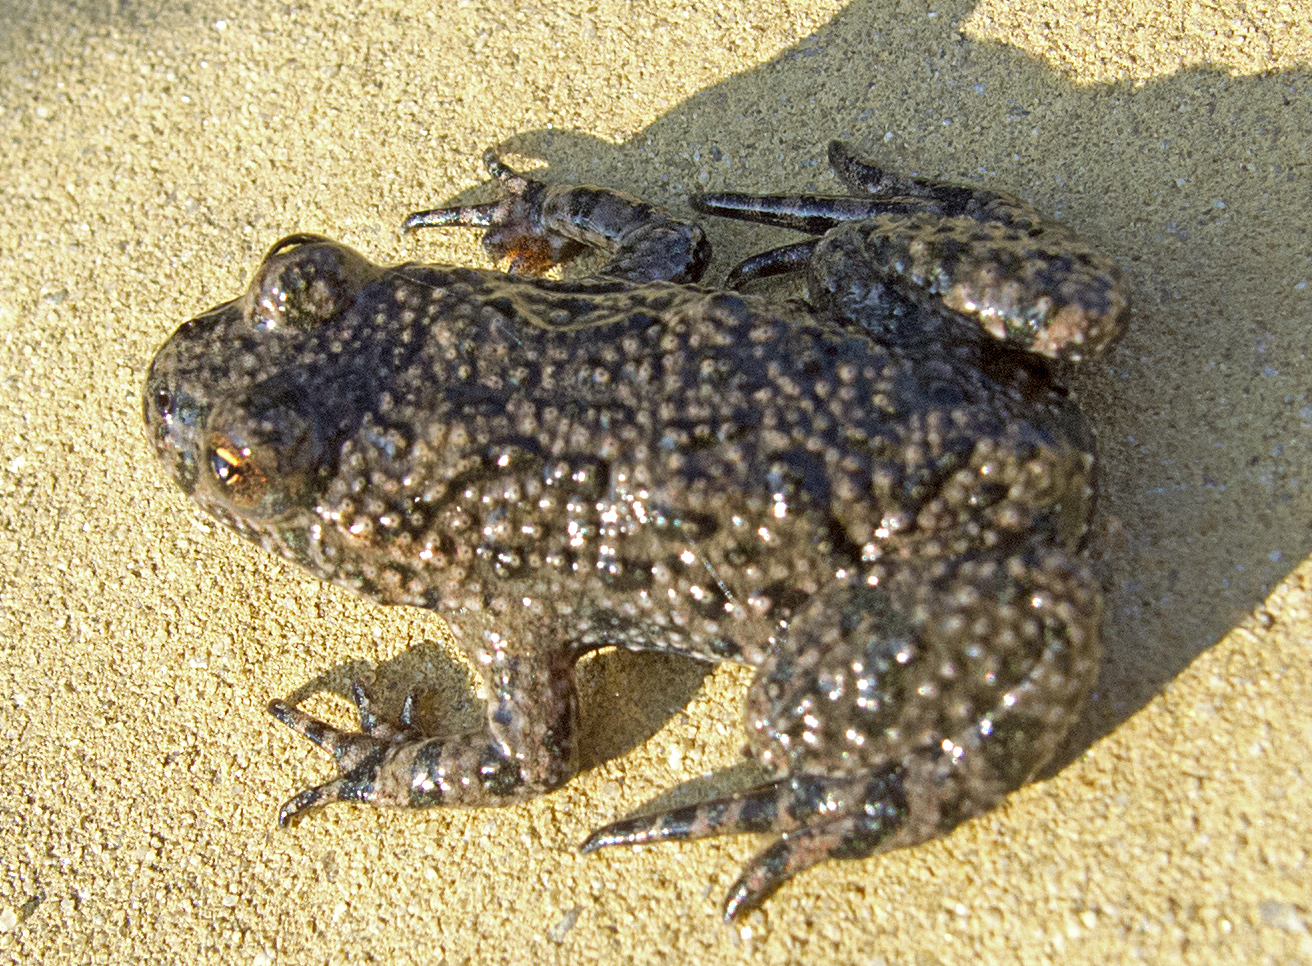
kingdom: Animalia
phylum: Chordata
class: Amphibia
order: Anura
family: Bombinatoridae
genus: Bombina
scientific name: Bombina bombina
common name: Fire-bellied toad
